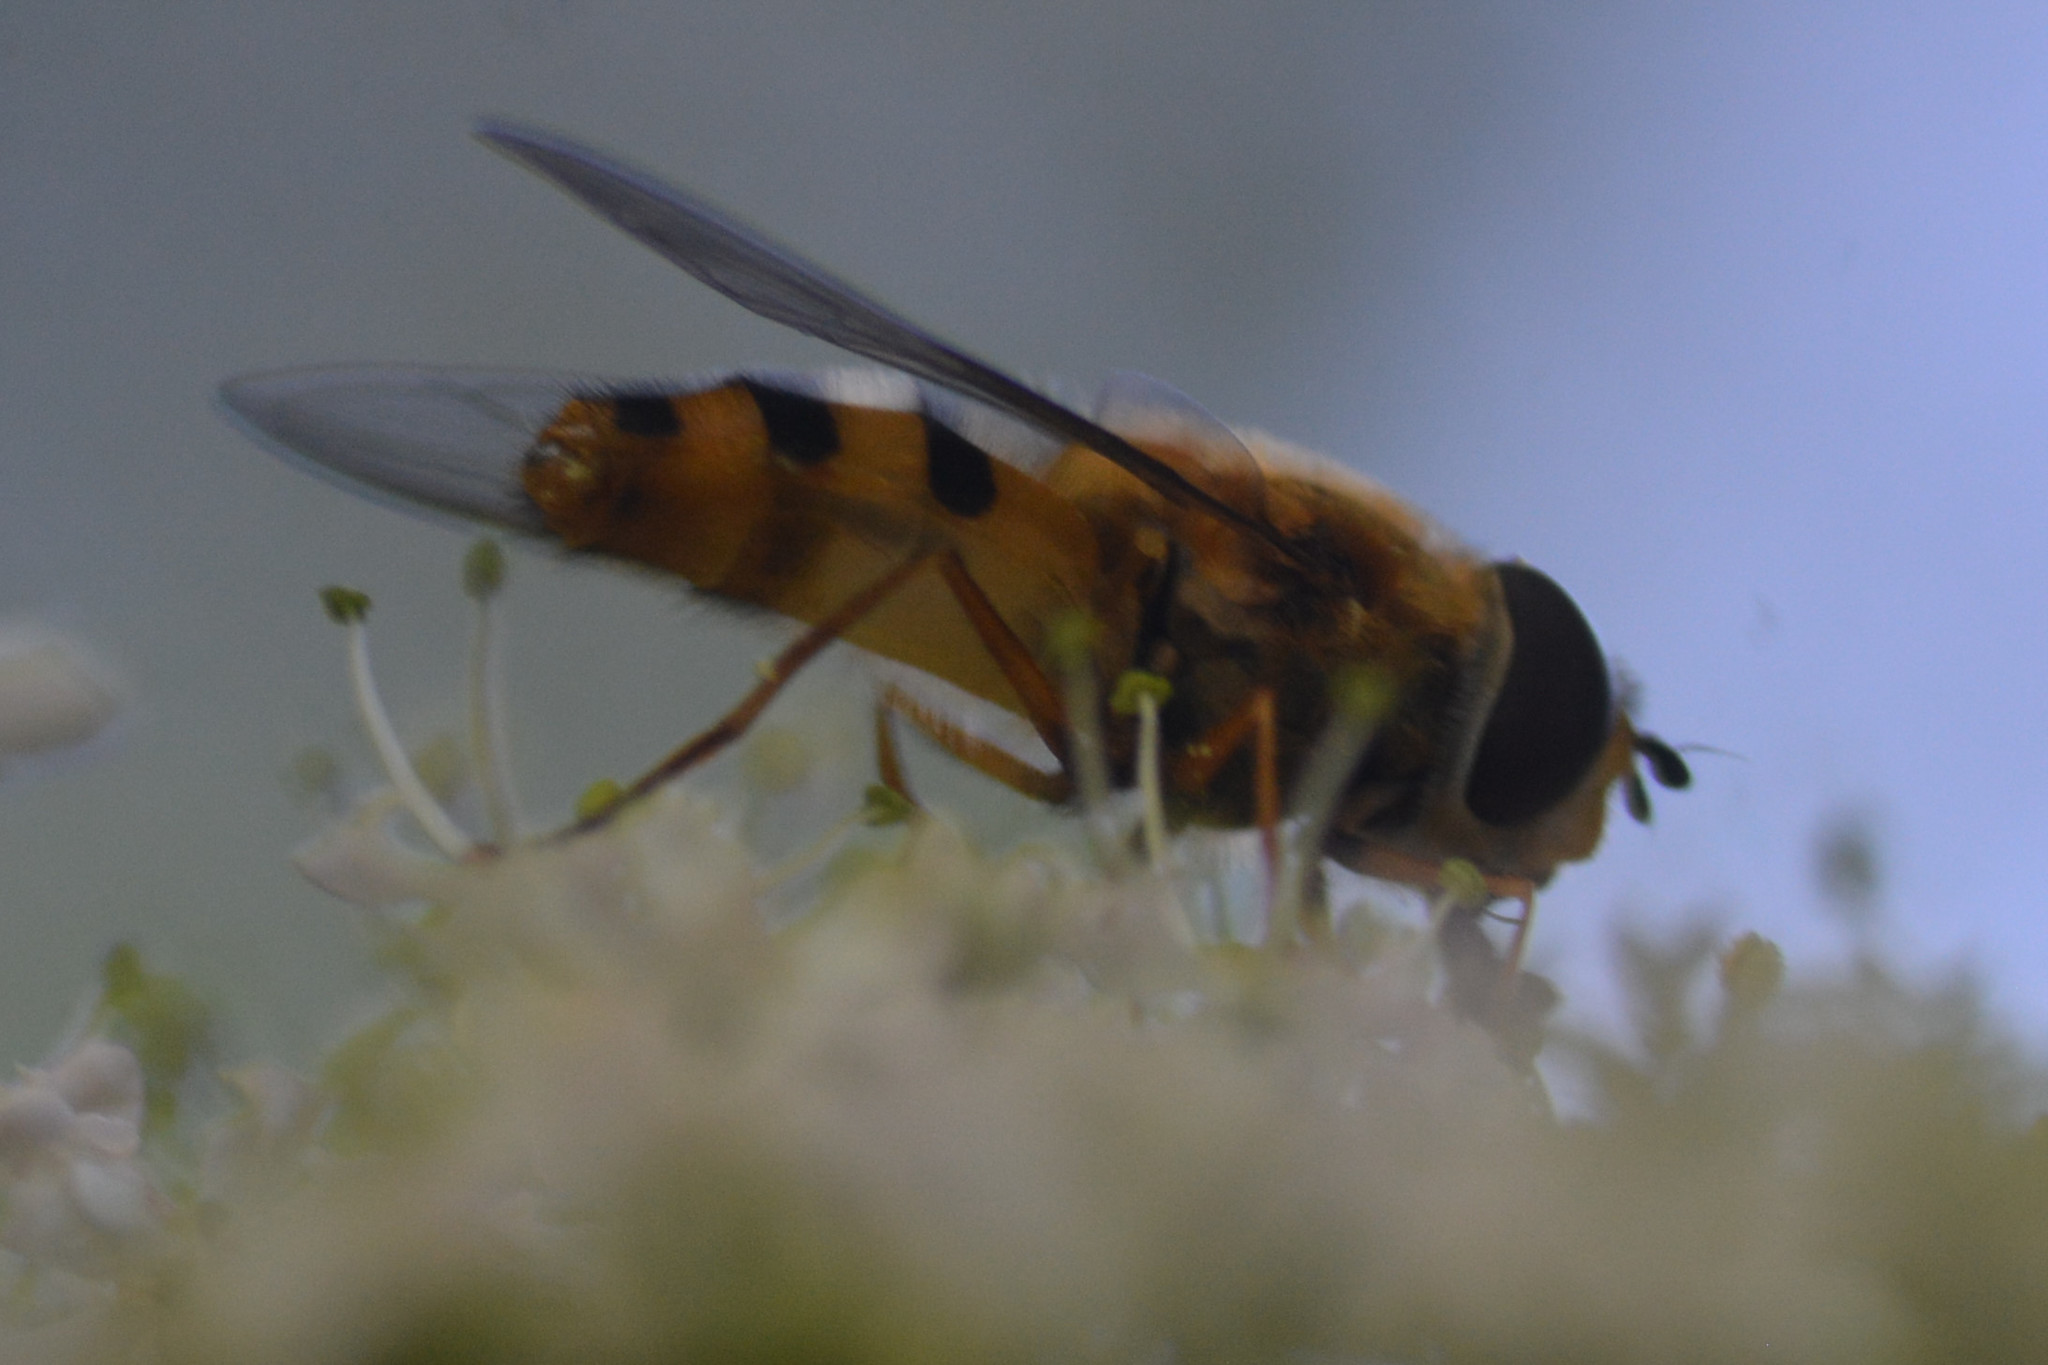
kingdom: Animalia
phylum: Arthropoda
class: Insecta
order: Diptera
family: Syrphidae
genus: Epistrophe
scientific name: Epistrophe grossulariae
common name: Black-horned smoothtail
